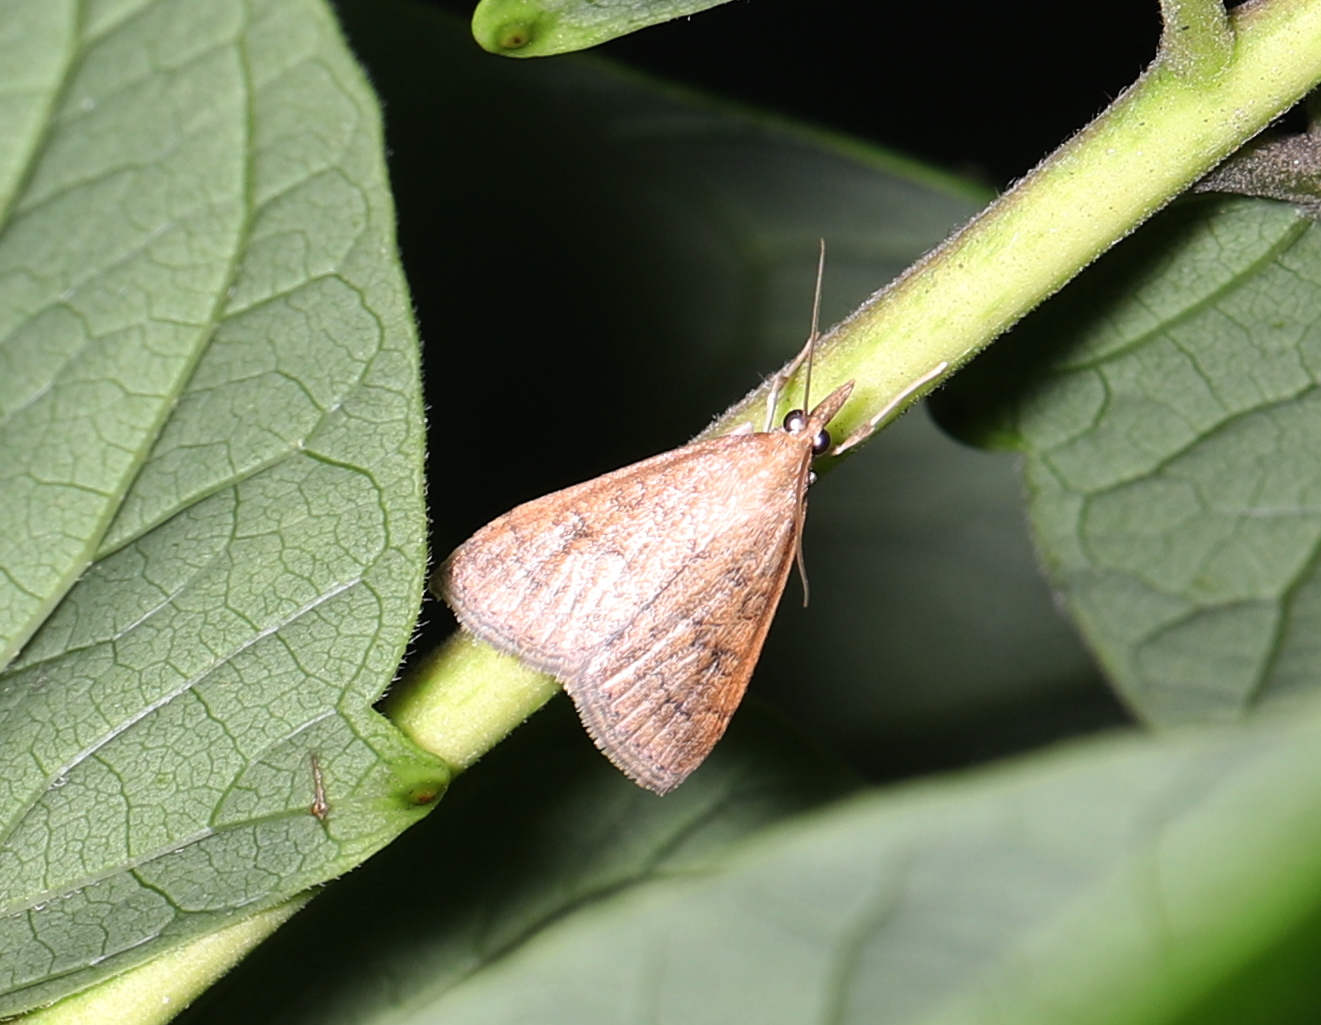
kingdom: Animalia
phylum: Arthropoda
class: Insecta
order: Lepidoptera
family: Crambidae
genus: Udea
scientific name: Udea rubigalis
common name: Celery leaftier moth
